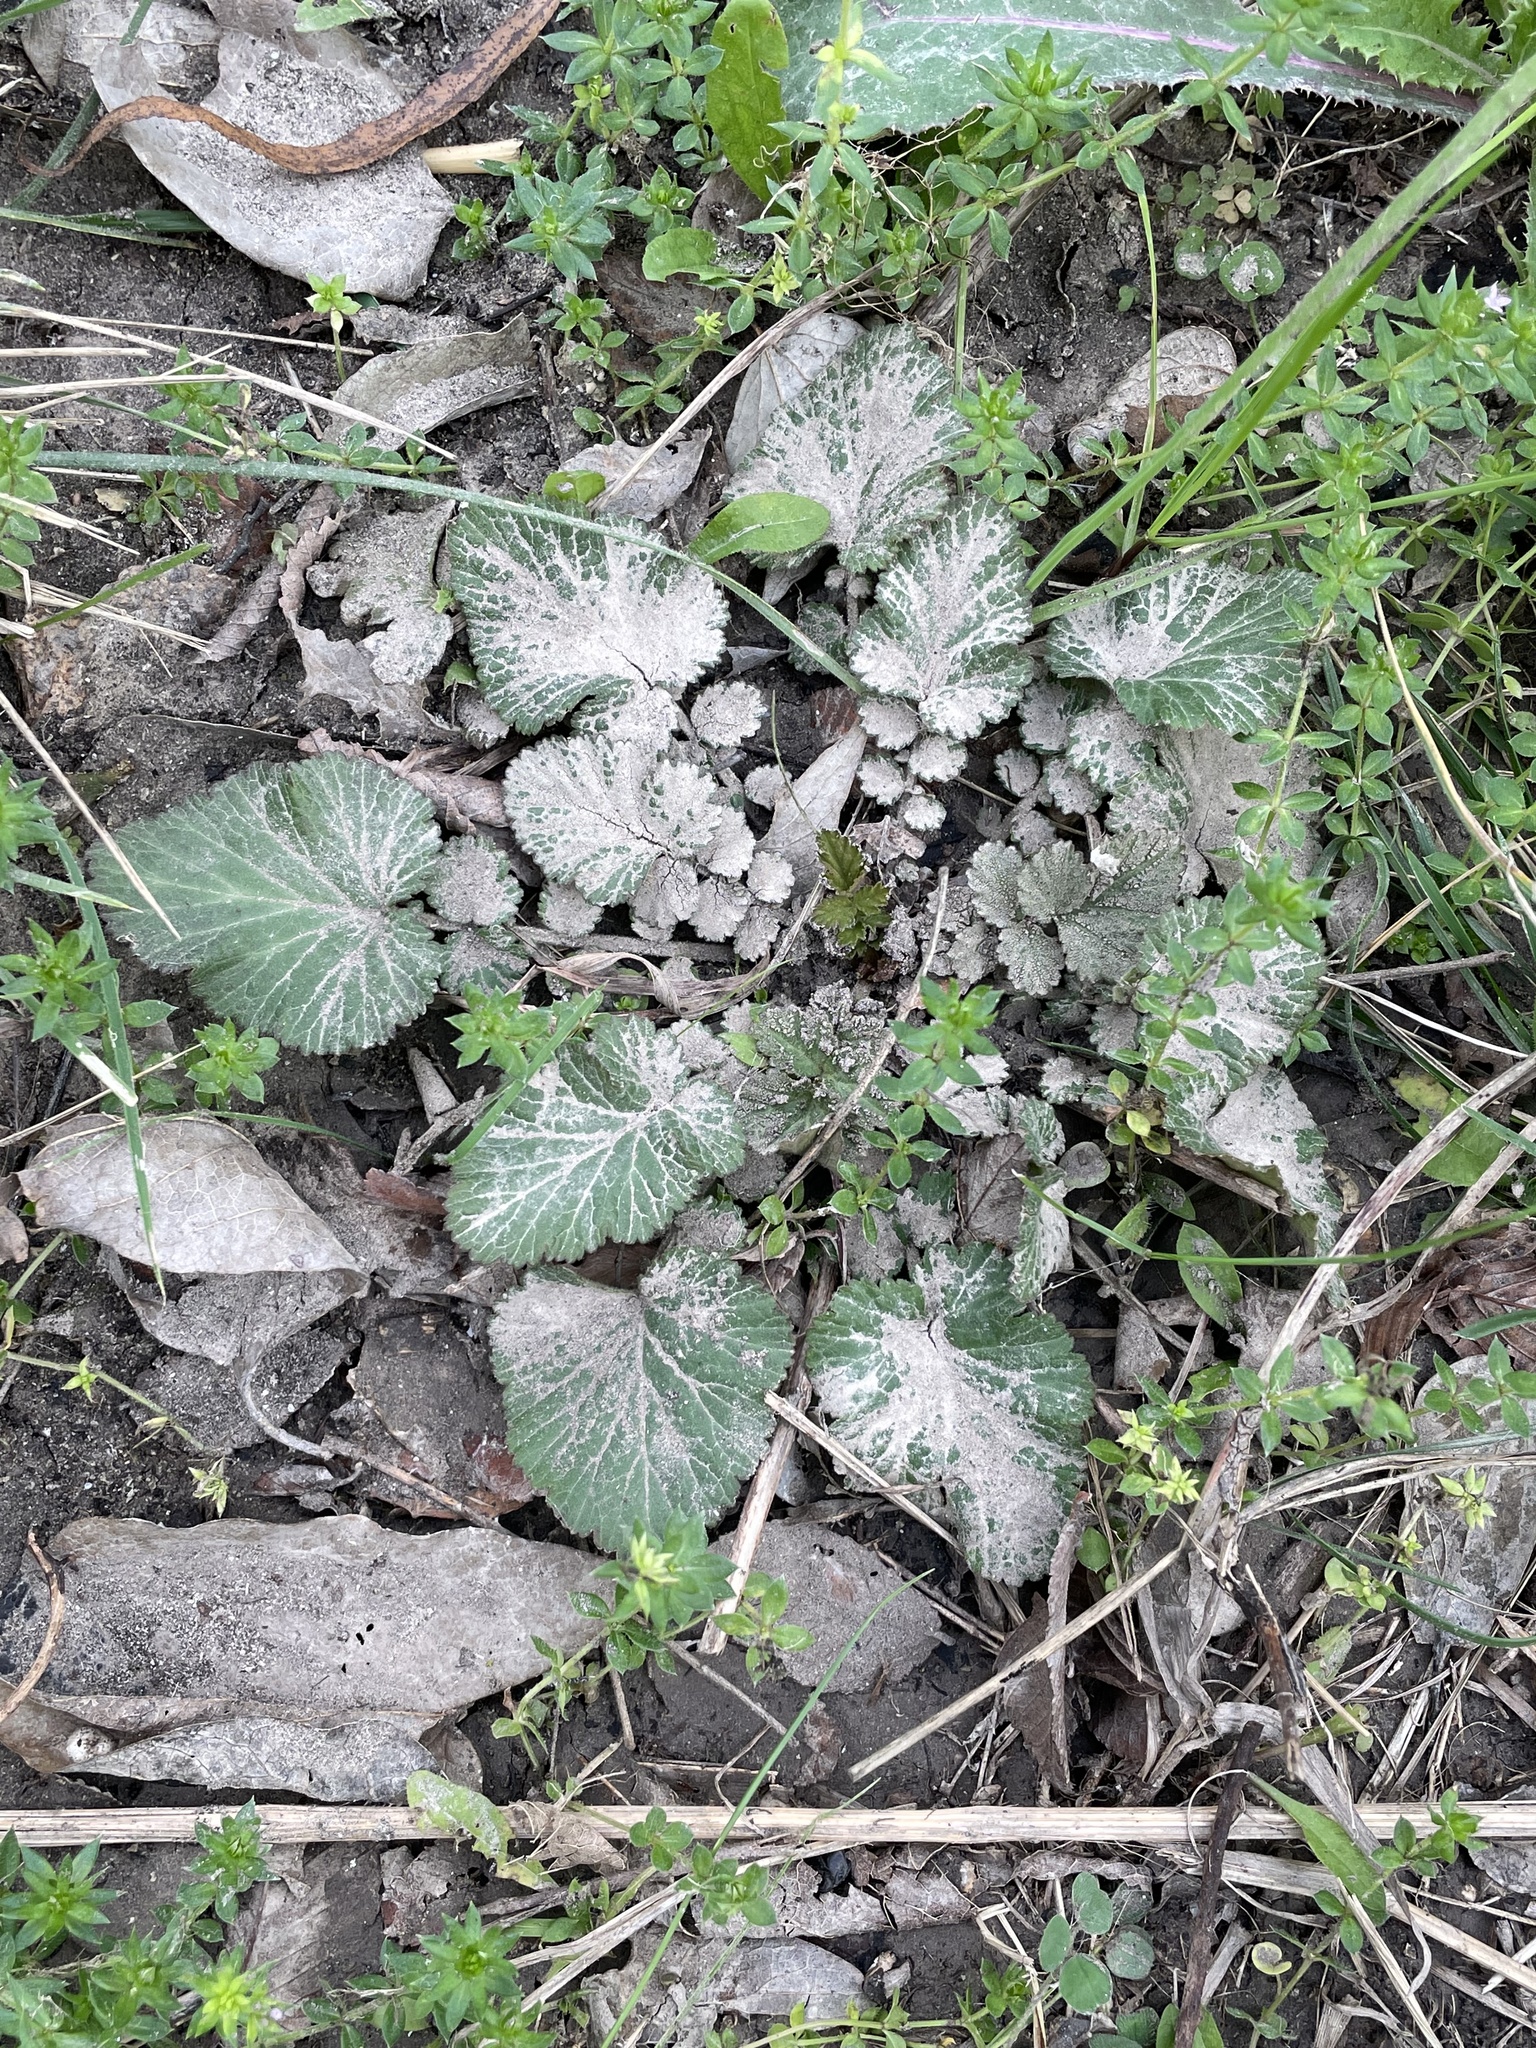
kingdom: Plantae
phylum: Tracheophyta
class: Magnoliopsida
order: Rosales
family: Rosaceae
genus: Geum
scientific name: Geum canadense
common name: White avens
